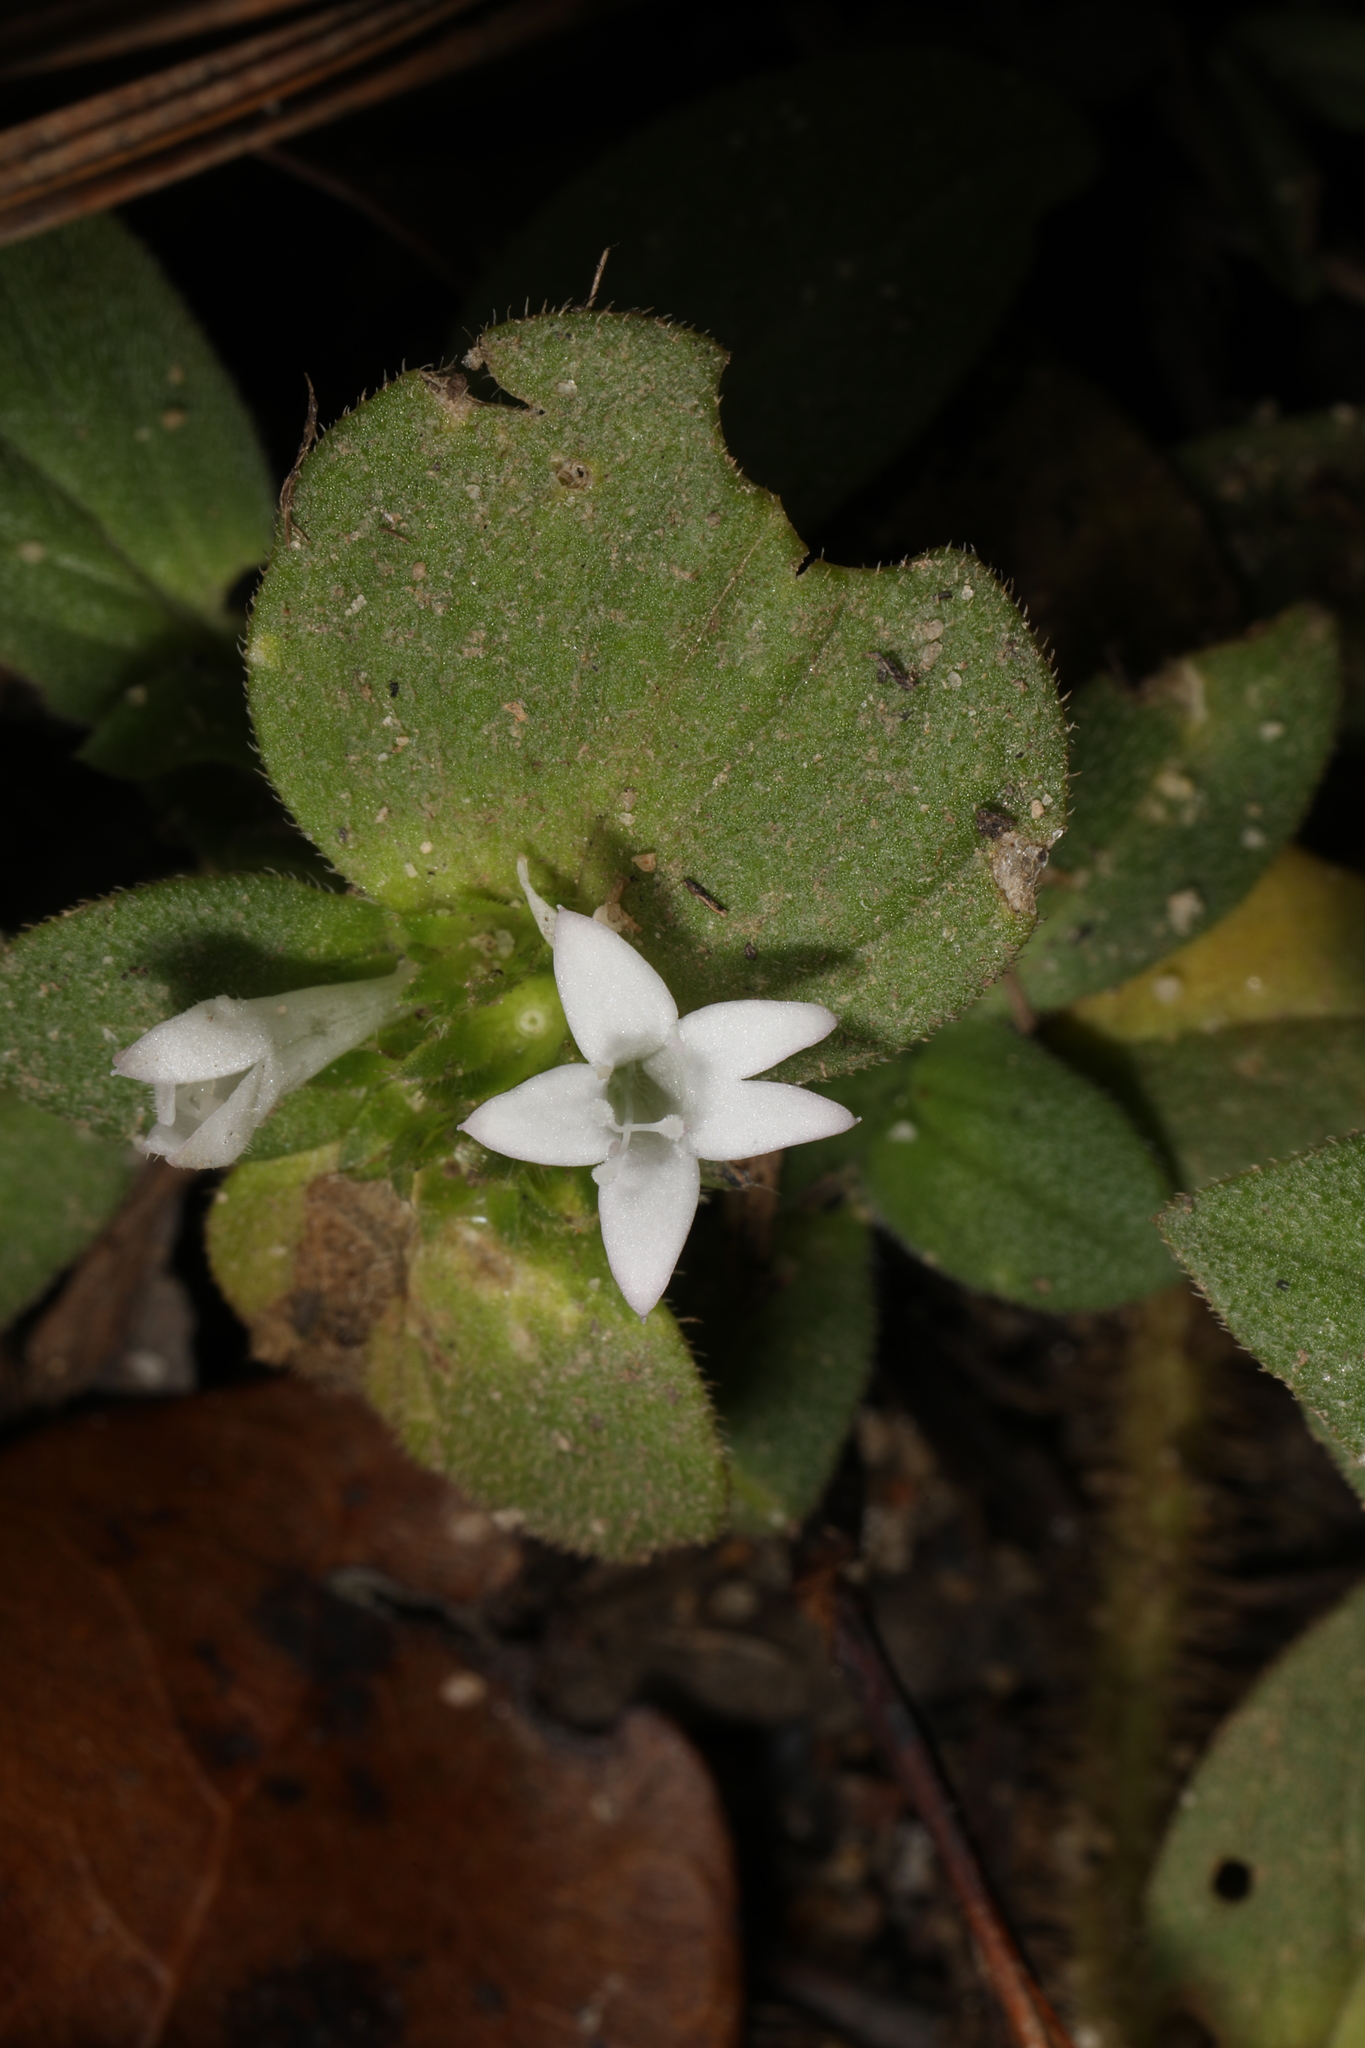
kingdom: Plantae
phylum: Tracheophyta
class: Magnoliopsida
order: Gentianales
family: Rubiaceae
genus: Richardia
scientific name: Richardia scabra
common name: Rough mexican clover
